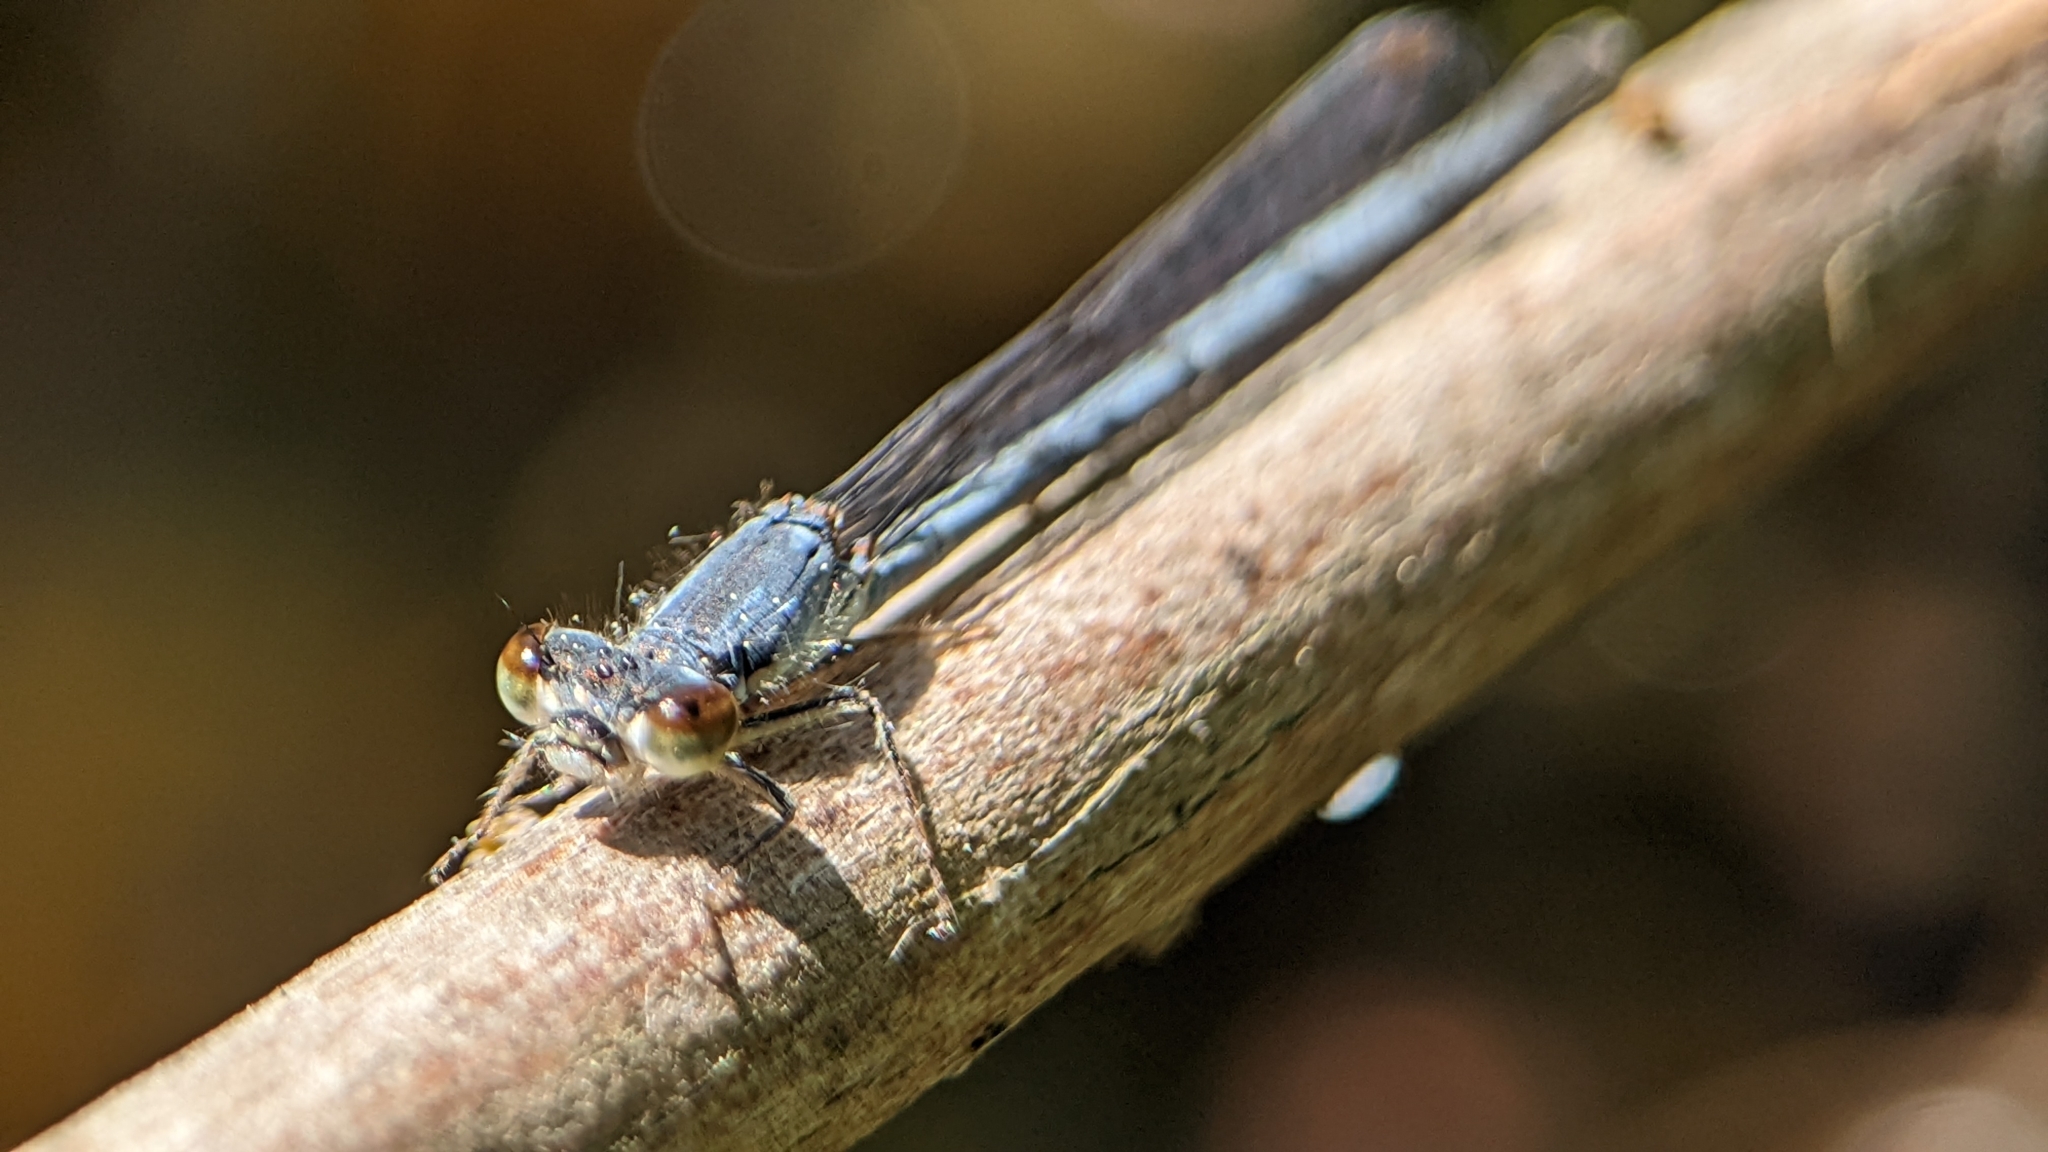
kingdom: Animalia
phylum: Arthropoda
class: Insecta
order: Odonata
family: Coenagrionidae
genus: Ischnura
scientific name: Ischnura posita
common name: Fragile forktail
